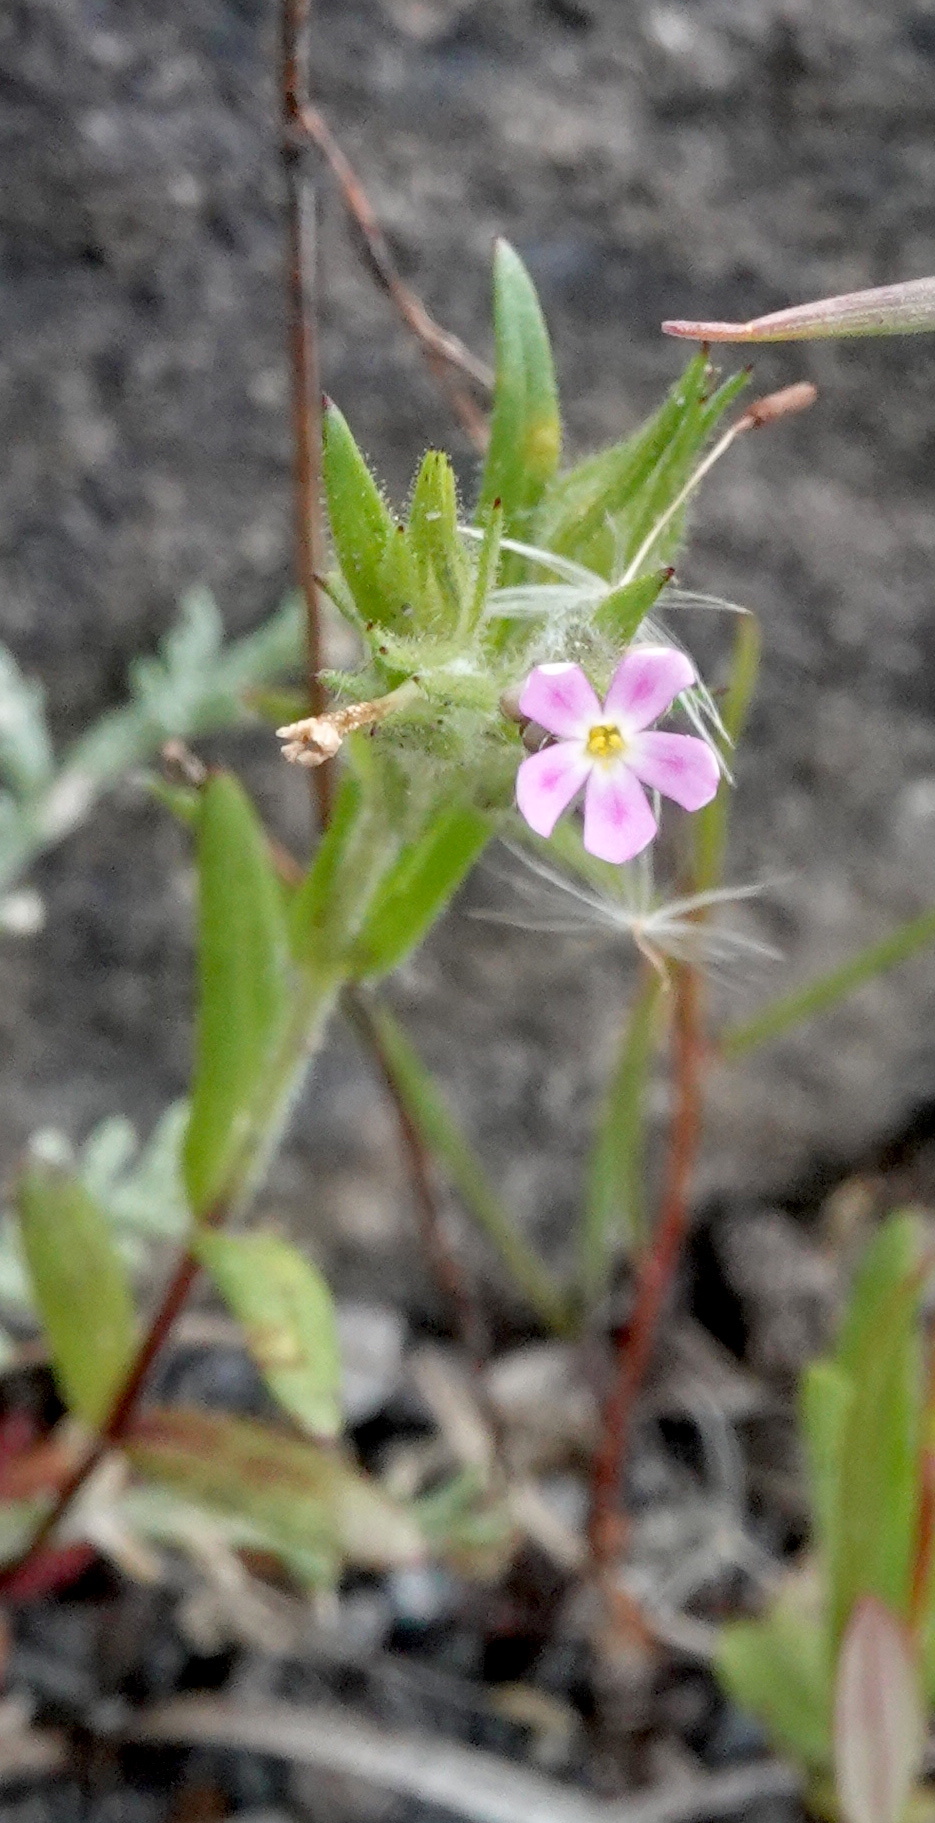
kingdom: Plantae
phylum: Tracheophyta
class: Magnoliopsida
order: Ericales
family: Polemoniaceae
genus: Phlox
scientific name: Phlox gracilis
